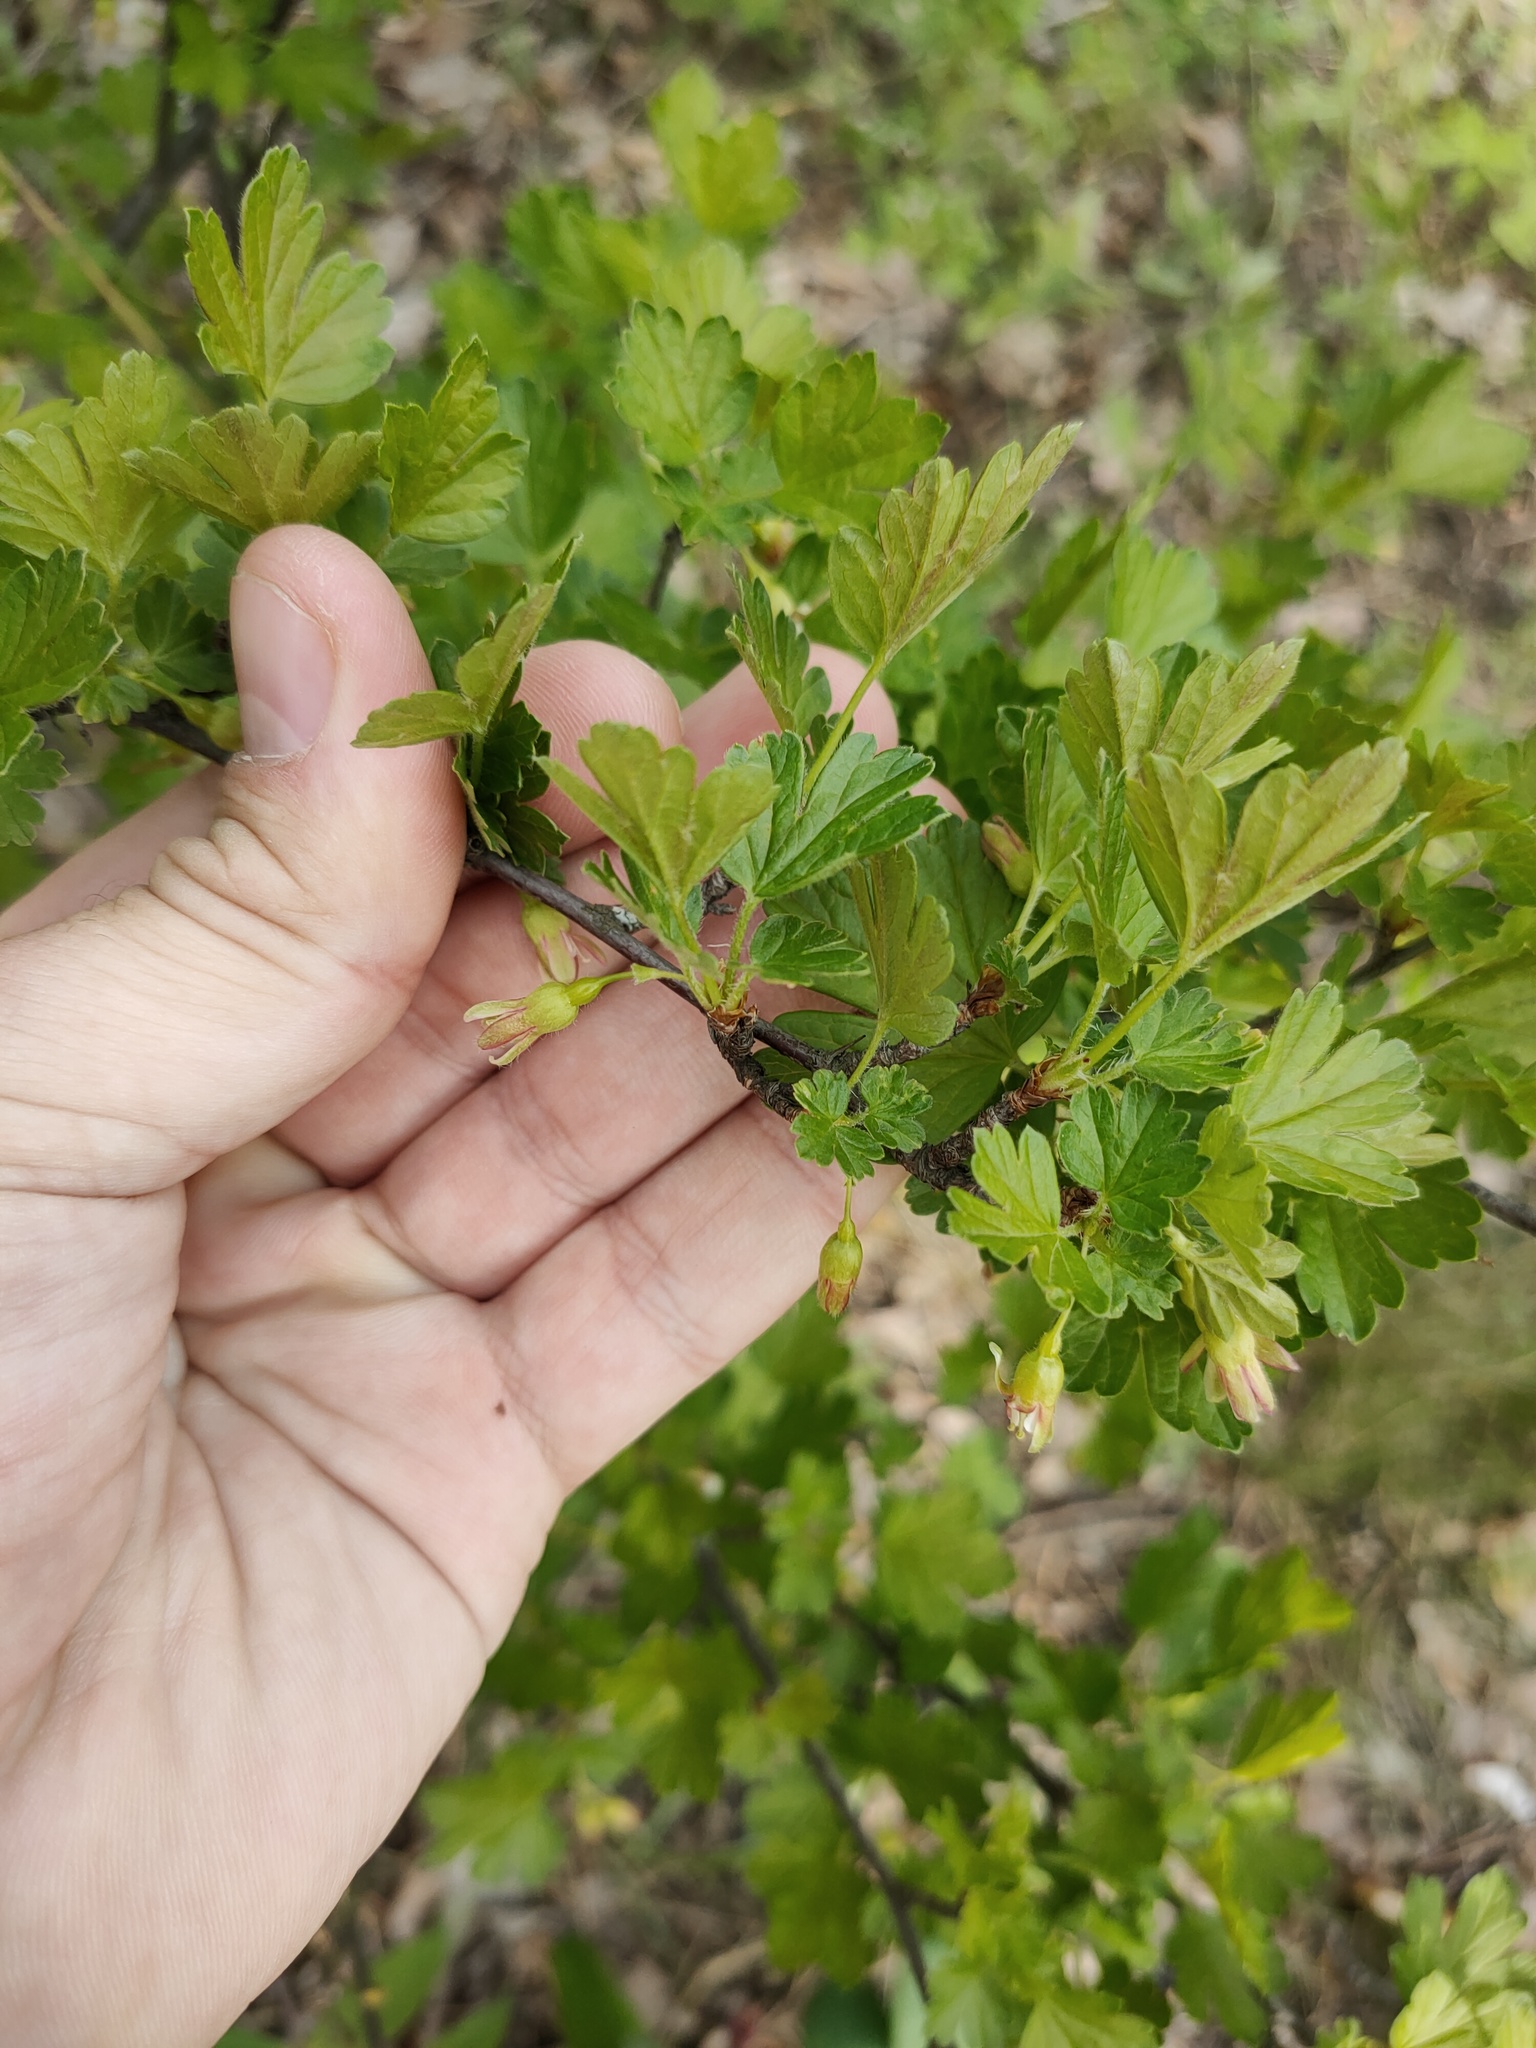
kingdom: Plantae
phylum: Tracheophyta
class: Magnoliopsida
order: Saxifragales
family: Grossulariaceae
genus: Ribes
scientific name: Ribes uva-crispa
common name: Gooseberry
